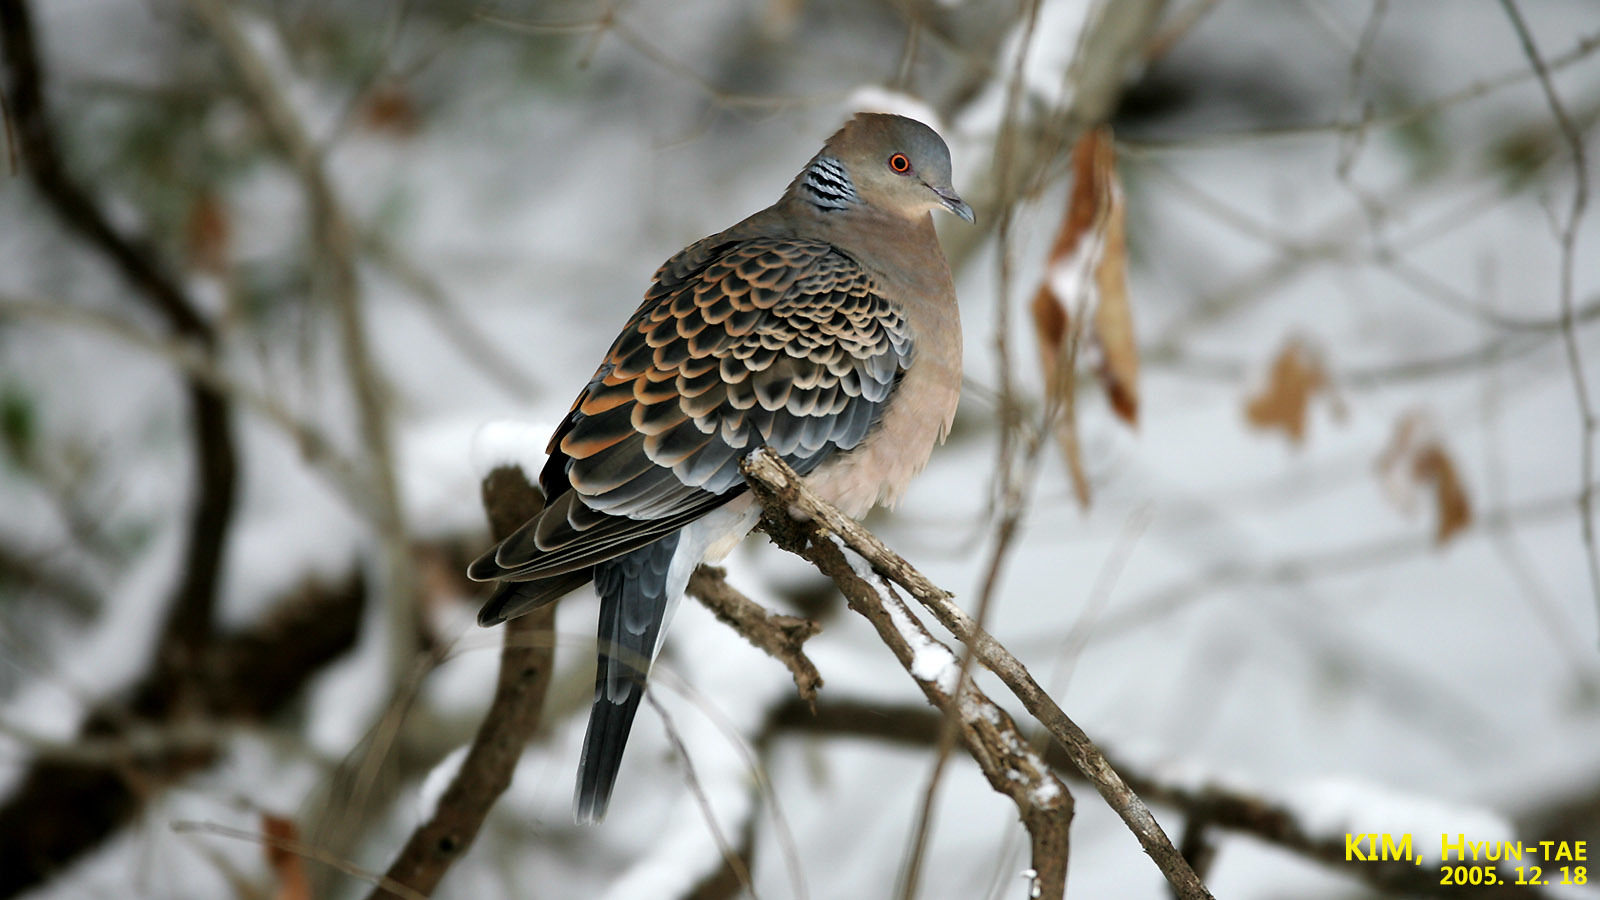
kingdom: Animalia
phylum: Chordata
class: Aves
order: Columbiformes
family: Columbidae
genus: Streptopelia
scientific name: Streptopelia orientalis
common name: Oriental turtle dove
